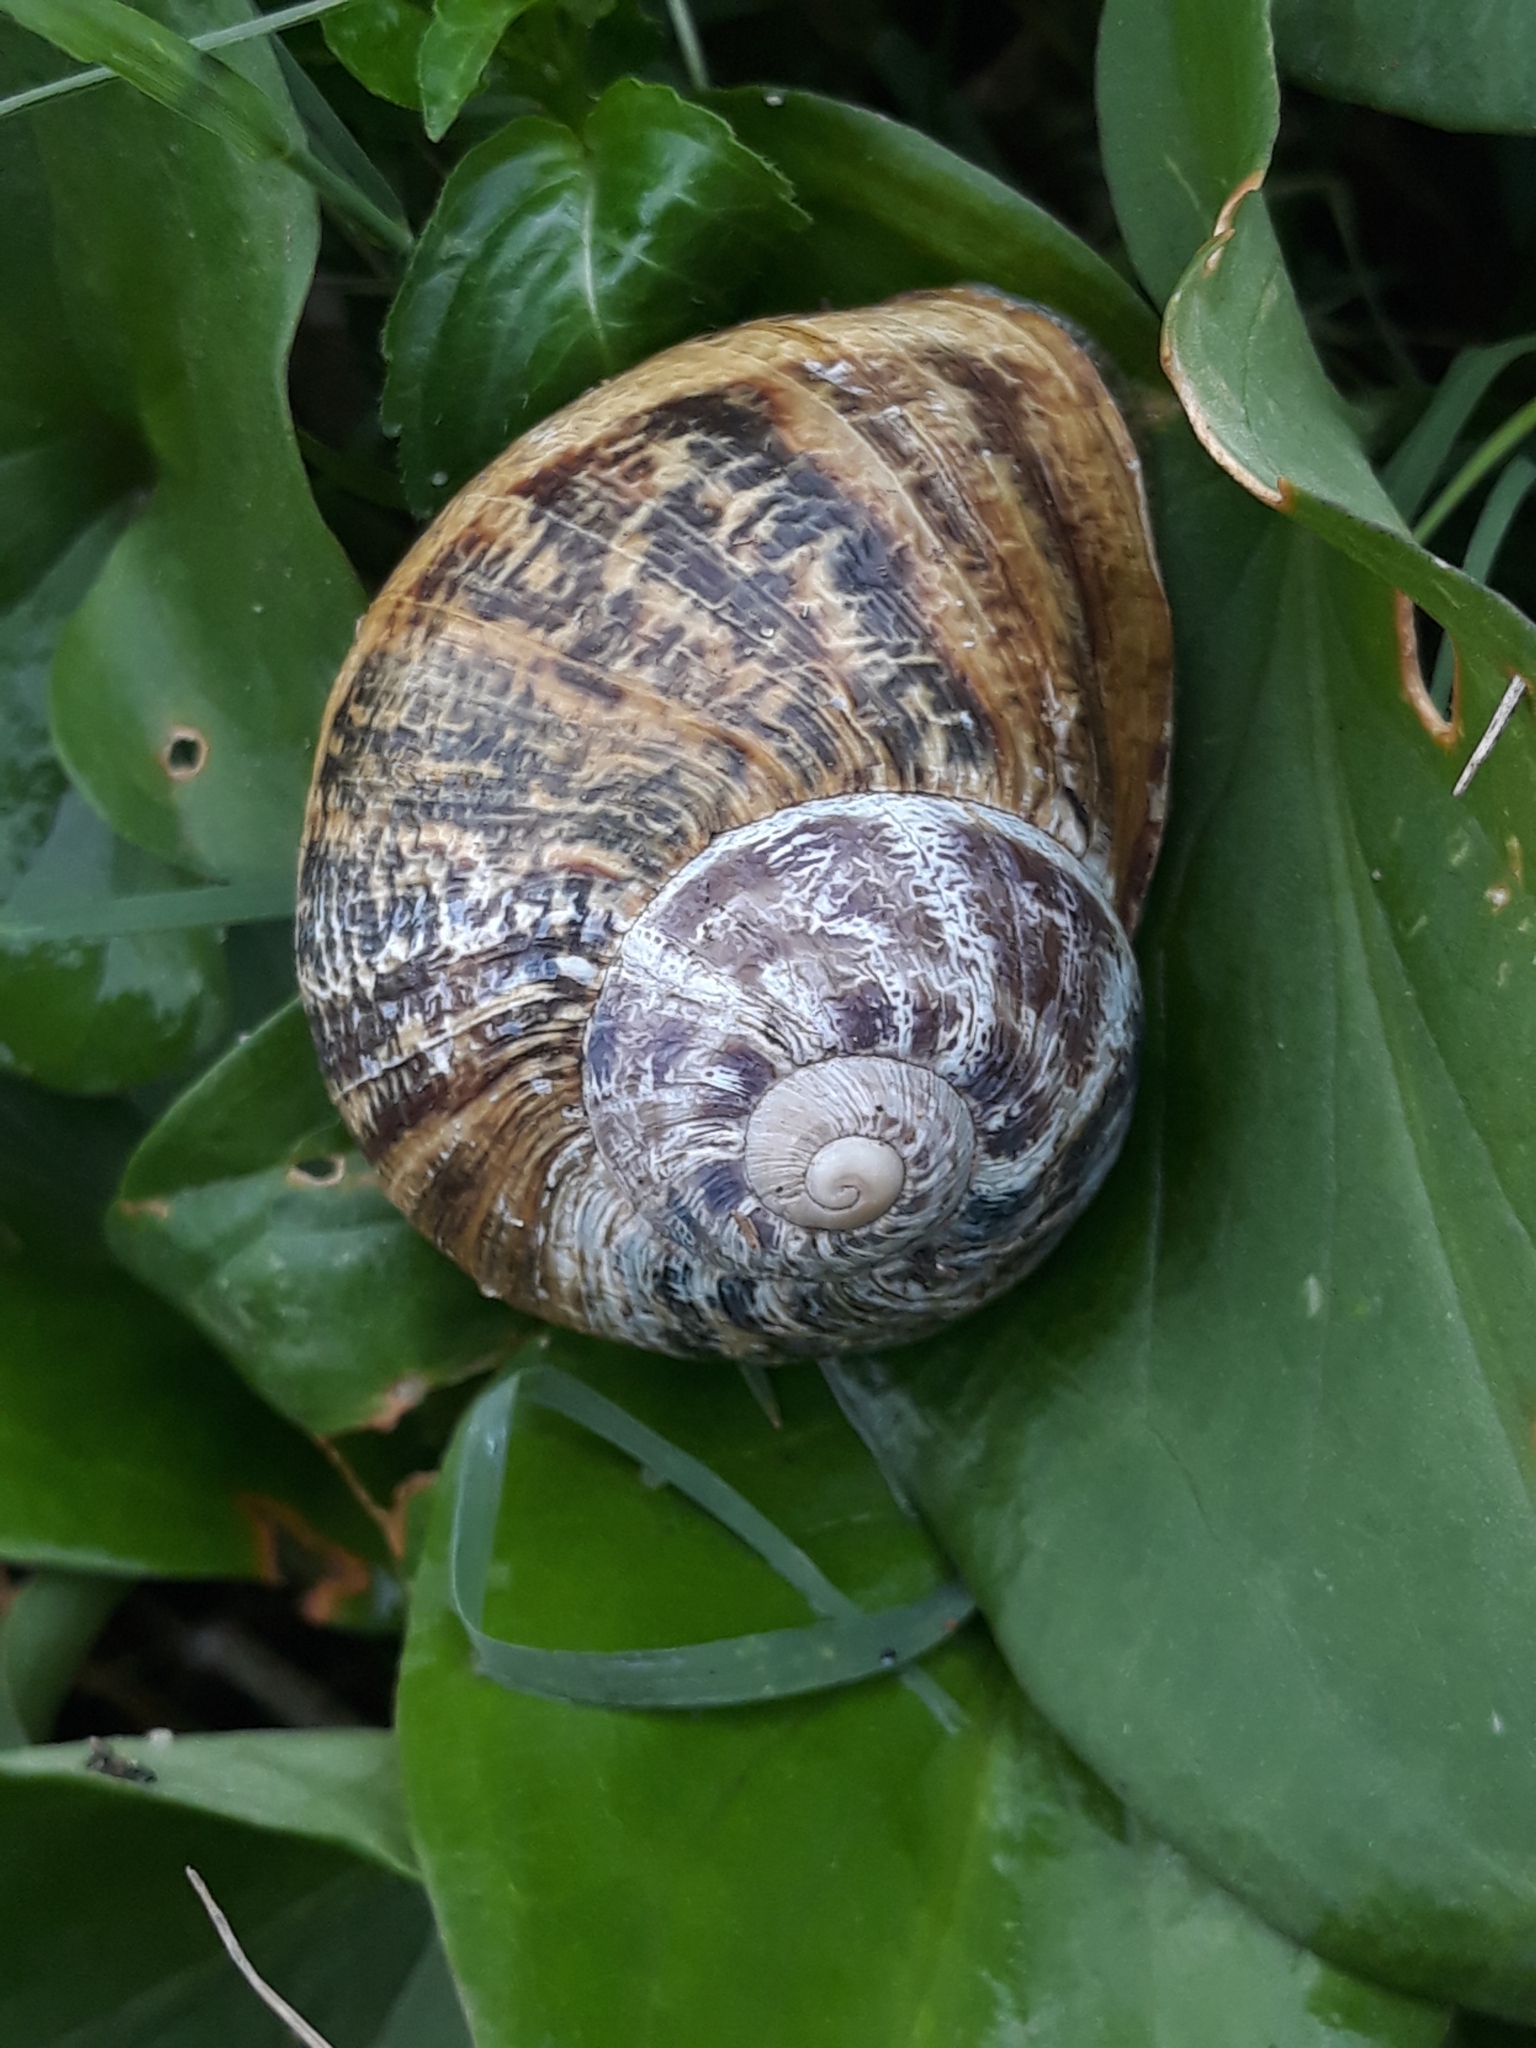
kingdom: Animalia
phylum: Mollusca
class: Gastropoda
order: Stylommatophora
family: Helicidae
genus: Cornu
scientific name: Cornu aspersum
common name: Brown garden snail
